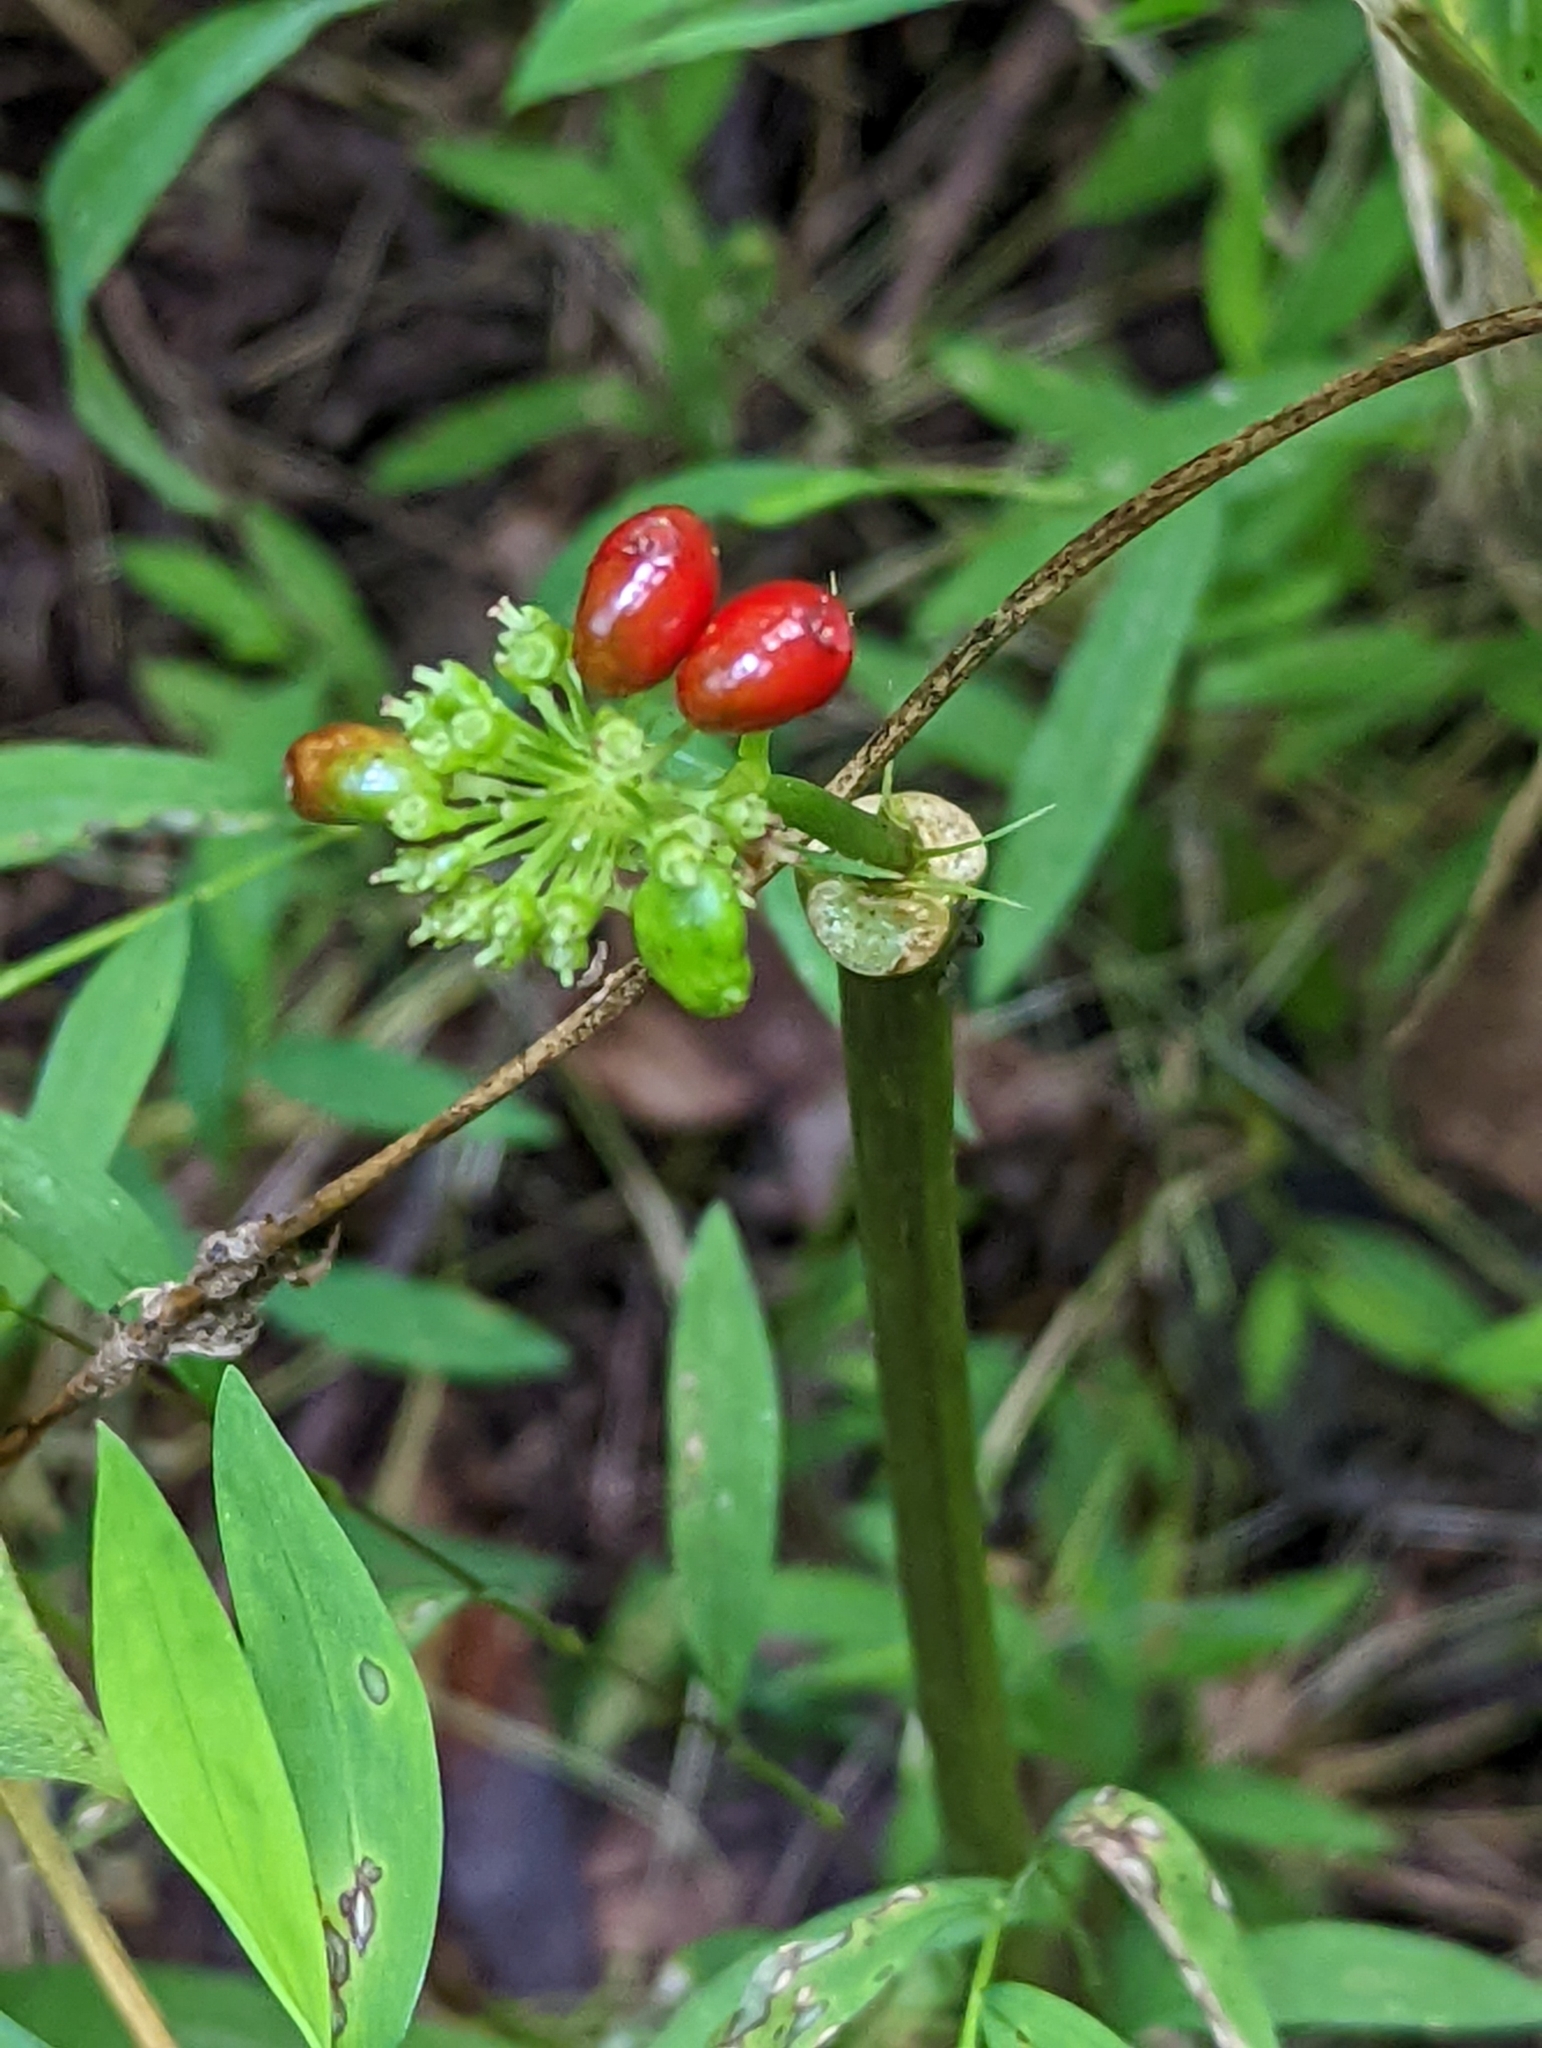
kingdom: Plantae
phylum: Tracheophyta
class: Magnoliopsida
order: Apiales
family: Araliaceae
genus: Panax
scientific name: Panax quinquefolius
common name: American ginseng
